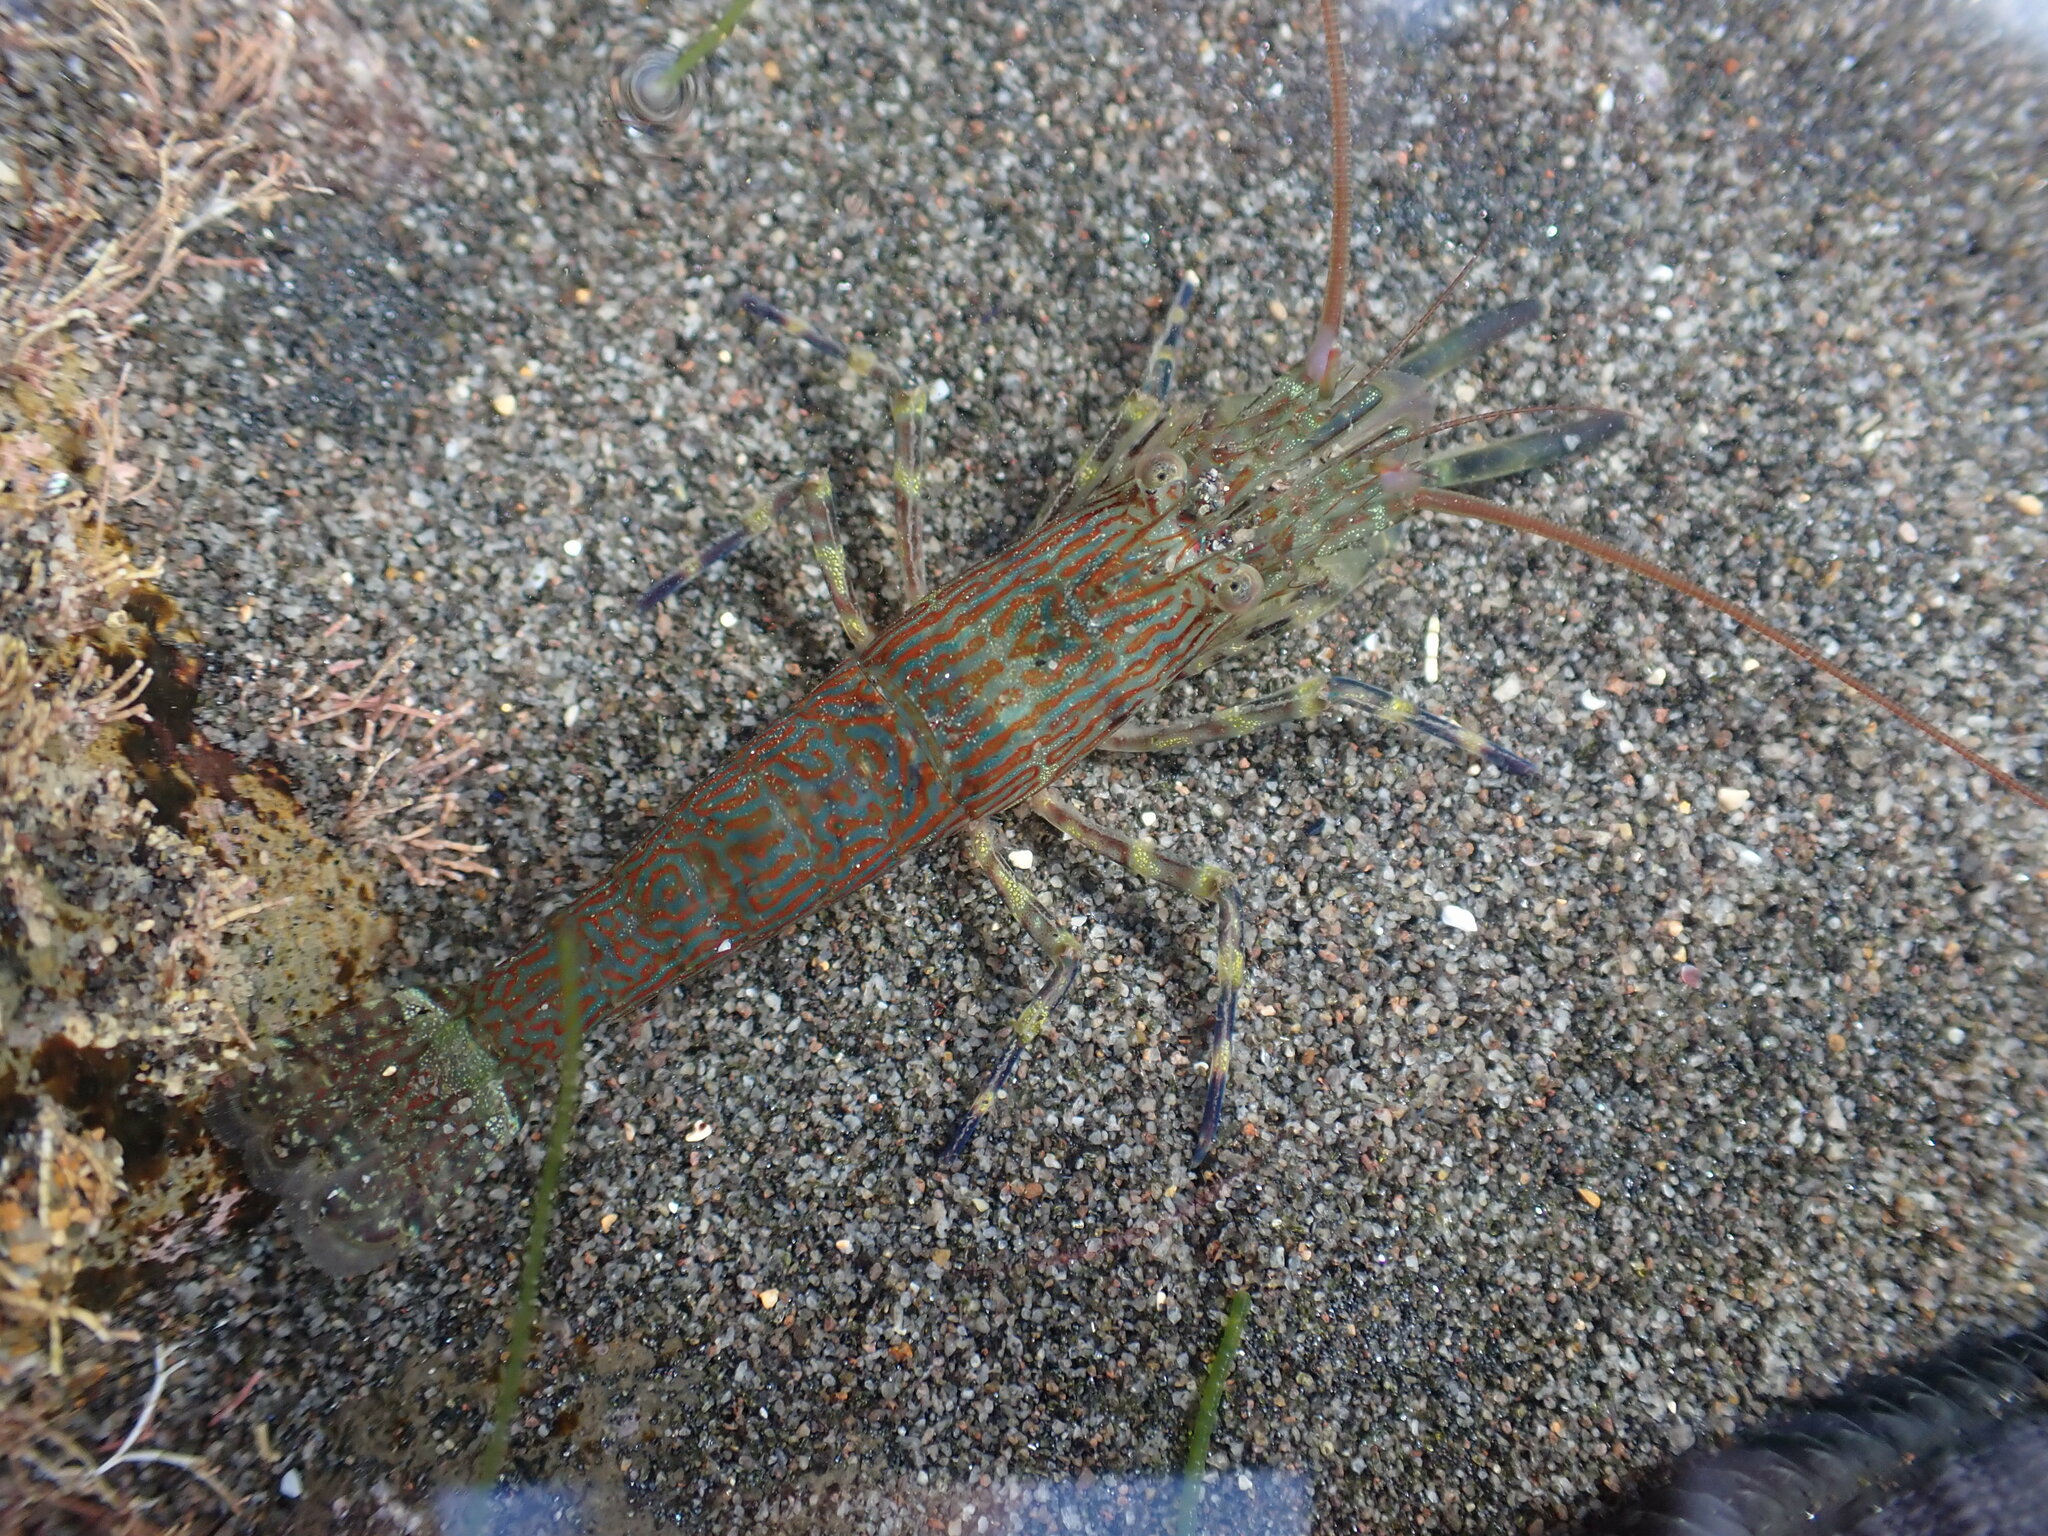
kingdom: Animalia
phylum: Arthropoda
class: Malacostraca
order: Decapoda
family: Hippolytidae
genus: Alope
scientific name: Alope spinifrons
